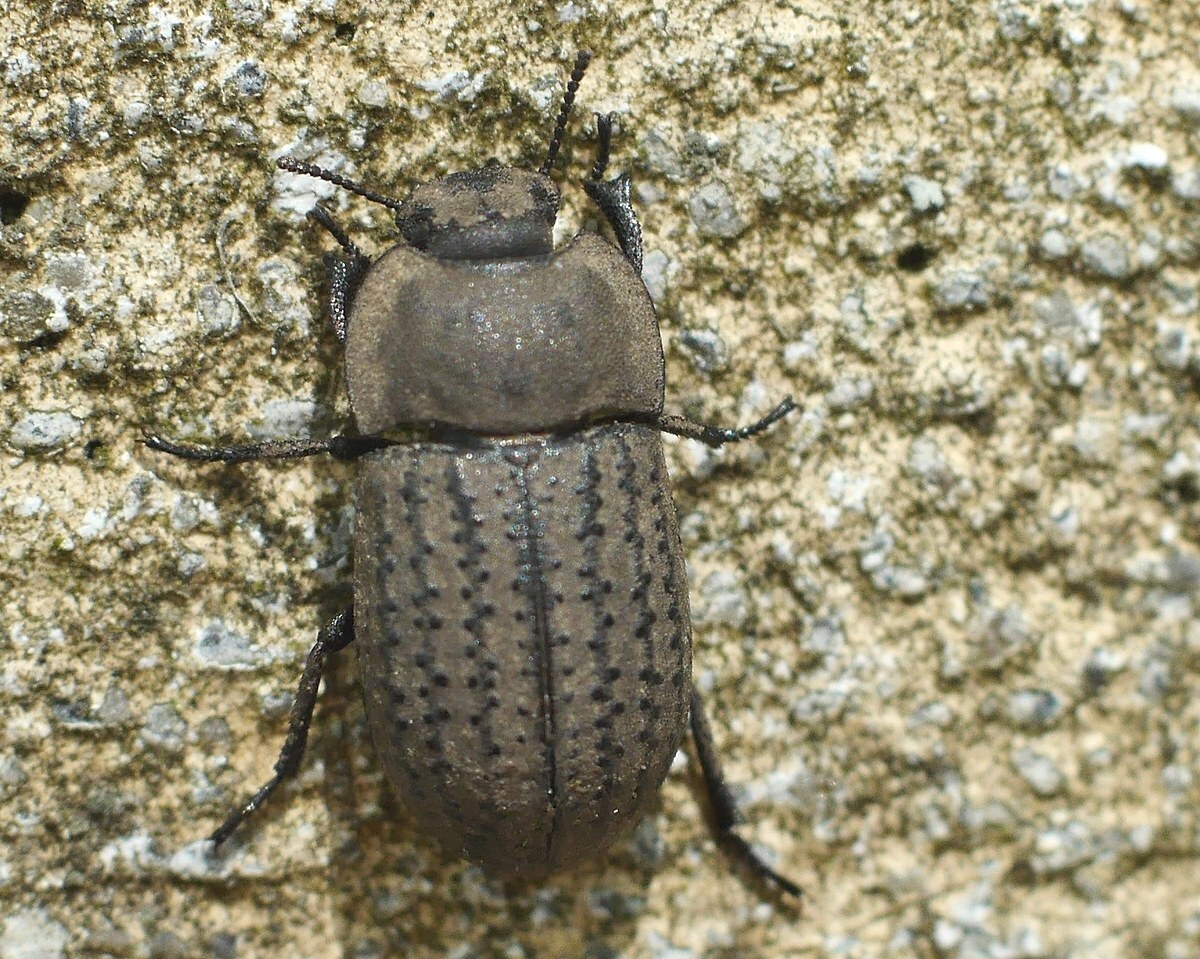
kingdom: Animalia
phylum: Arthropoda
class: Insecta
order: Coleoptera
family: Tenebrionidae
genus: Opatrum
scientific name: Opatrum sabulosum
